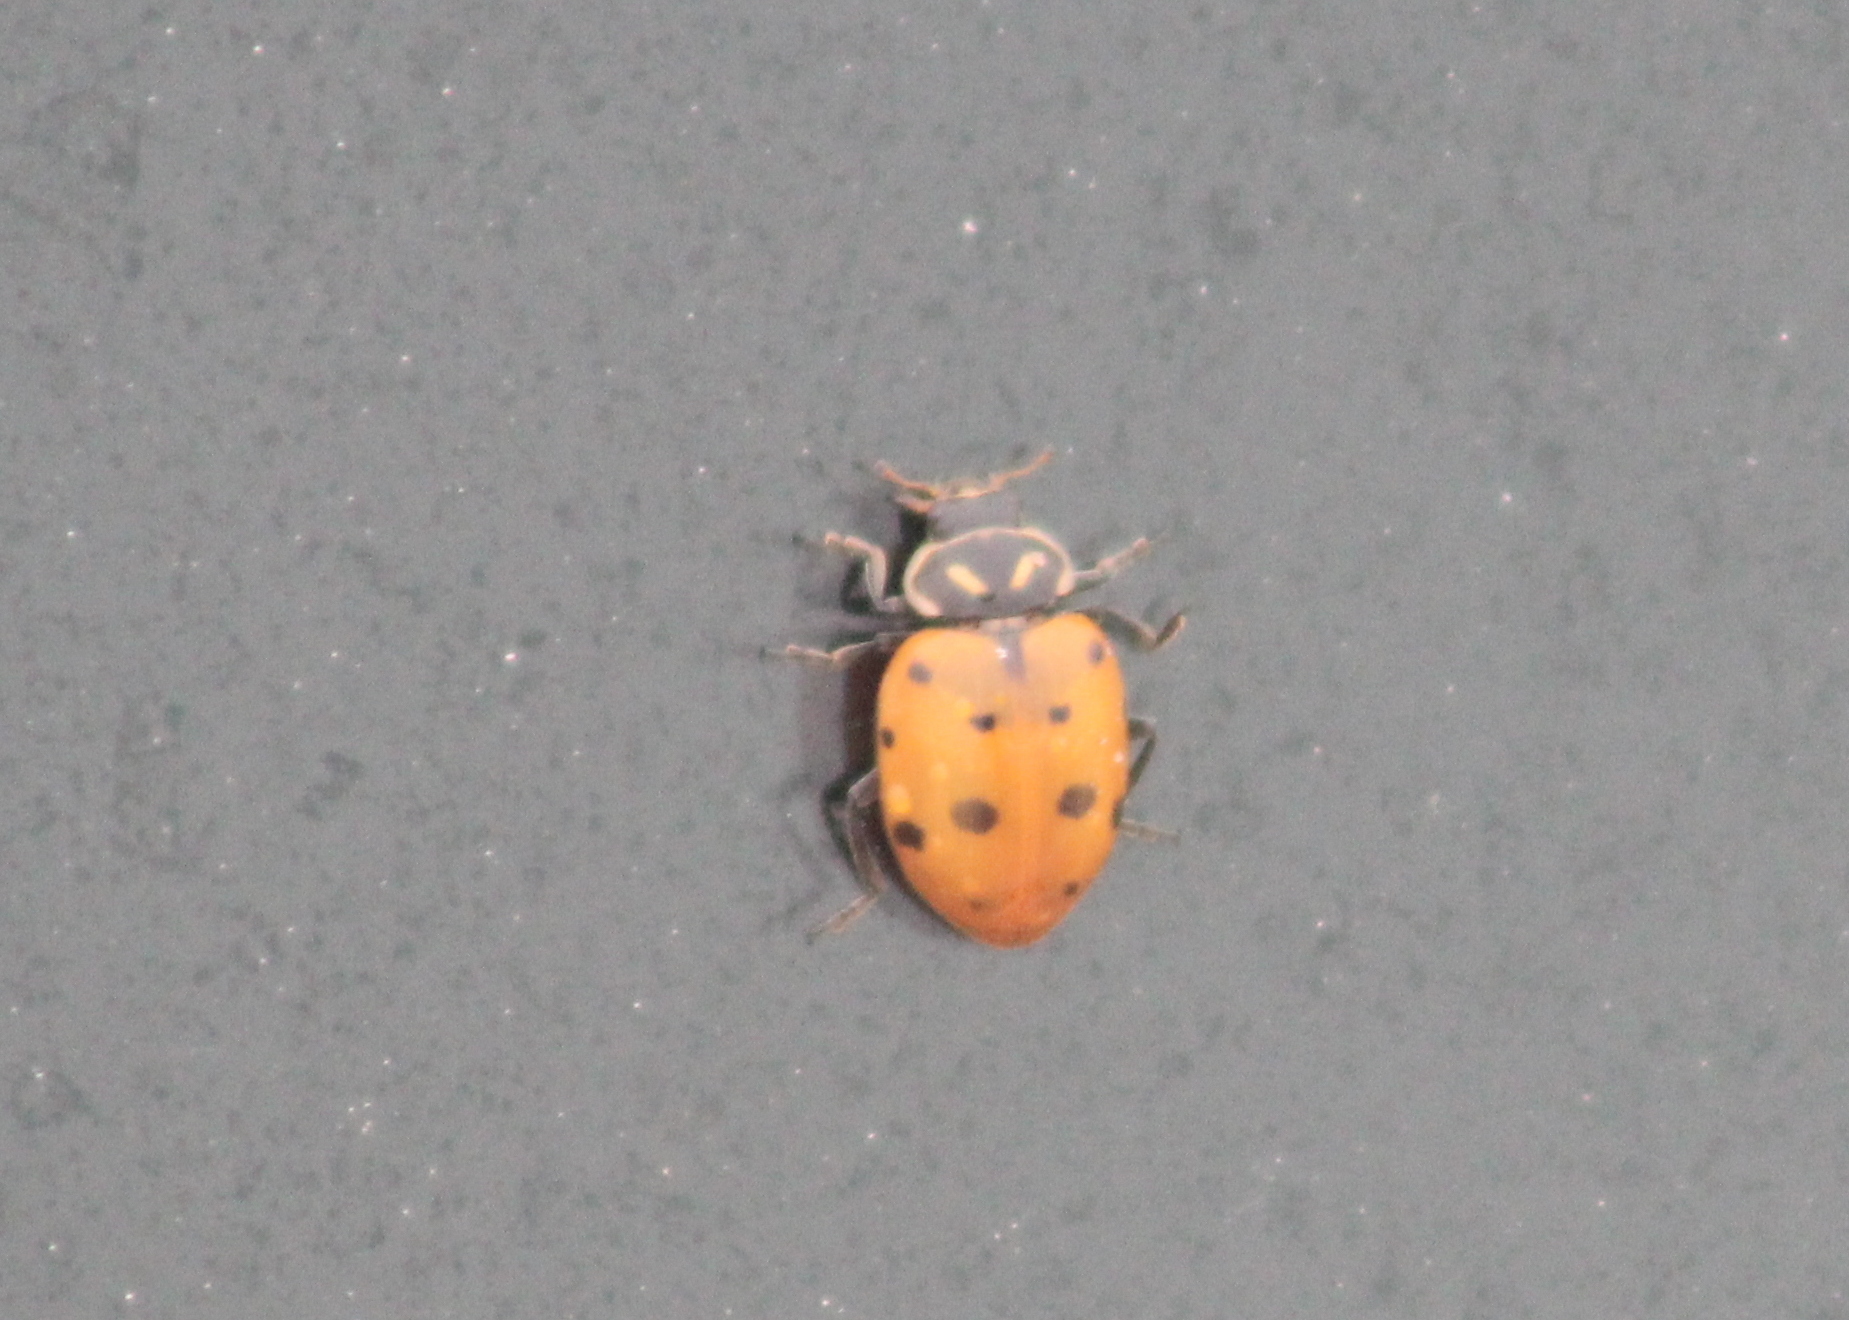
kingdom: Animalia
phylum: Arthropoda
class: Insecta
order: Coleoptera
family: Coccinellidae
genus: Hippodamia
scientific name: Hippodamia convergens
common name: Convergent lady beetle
